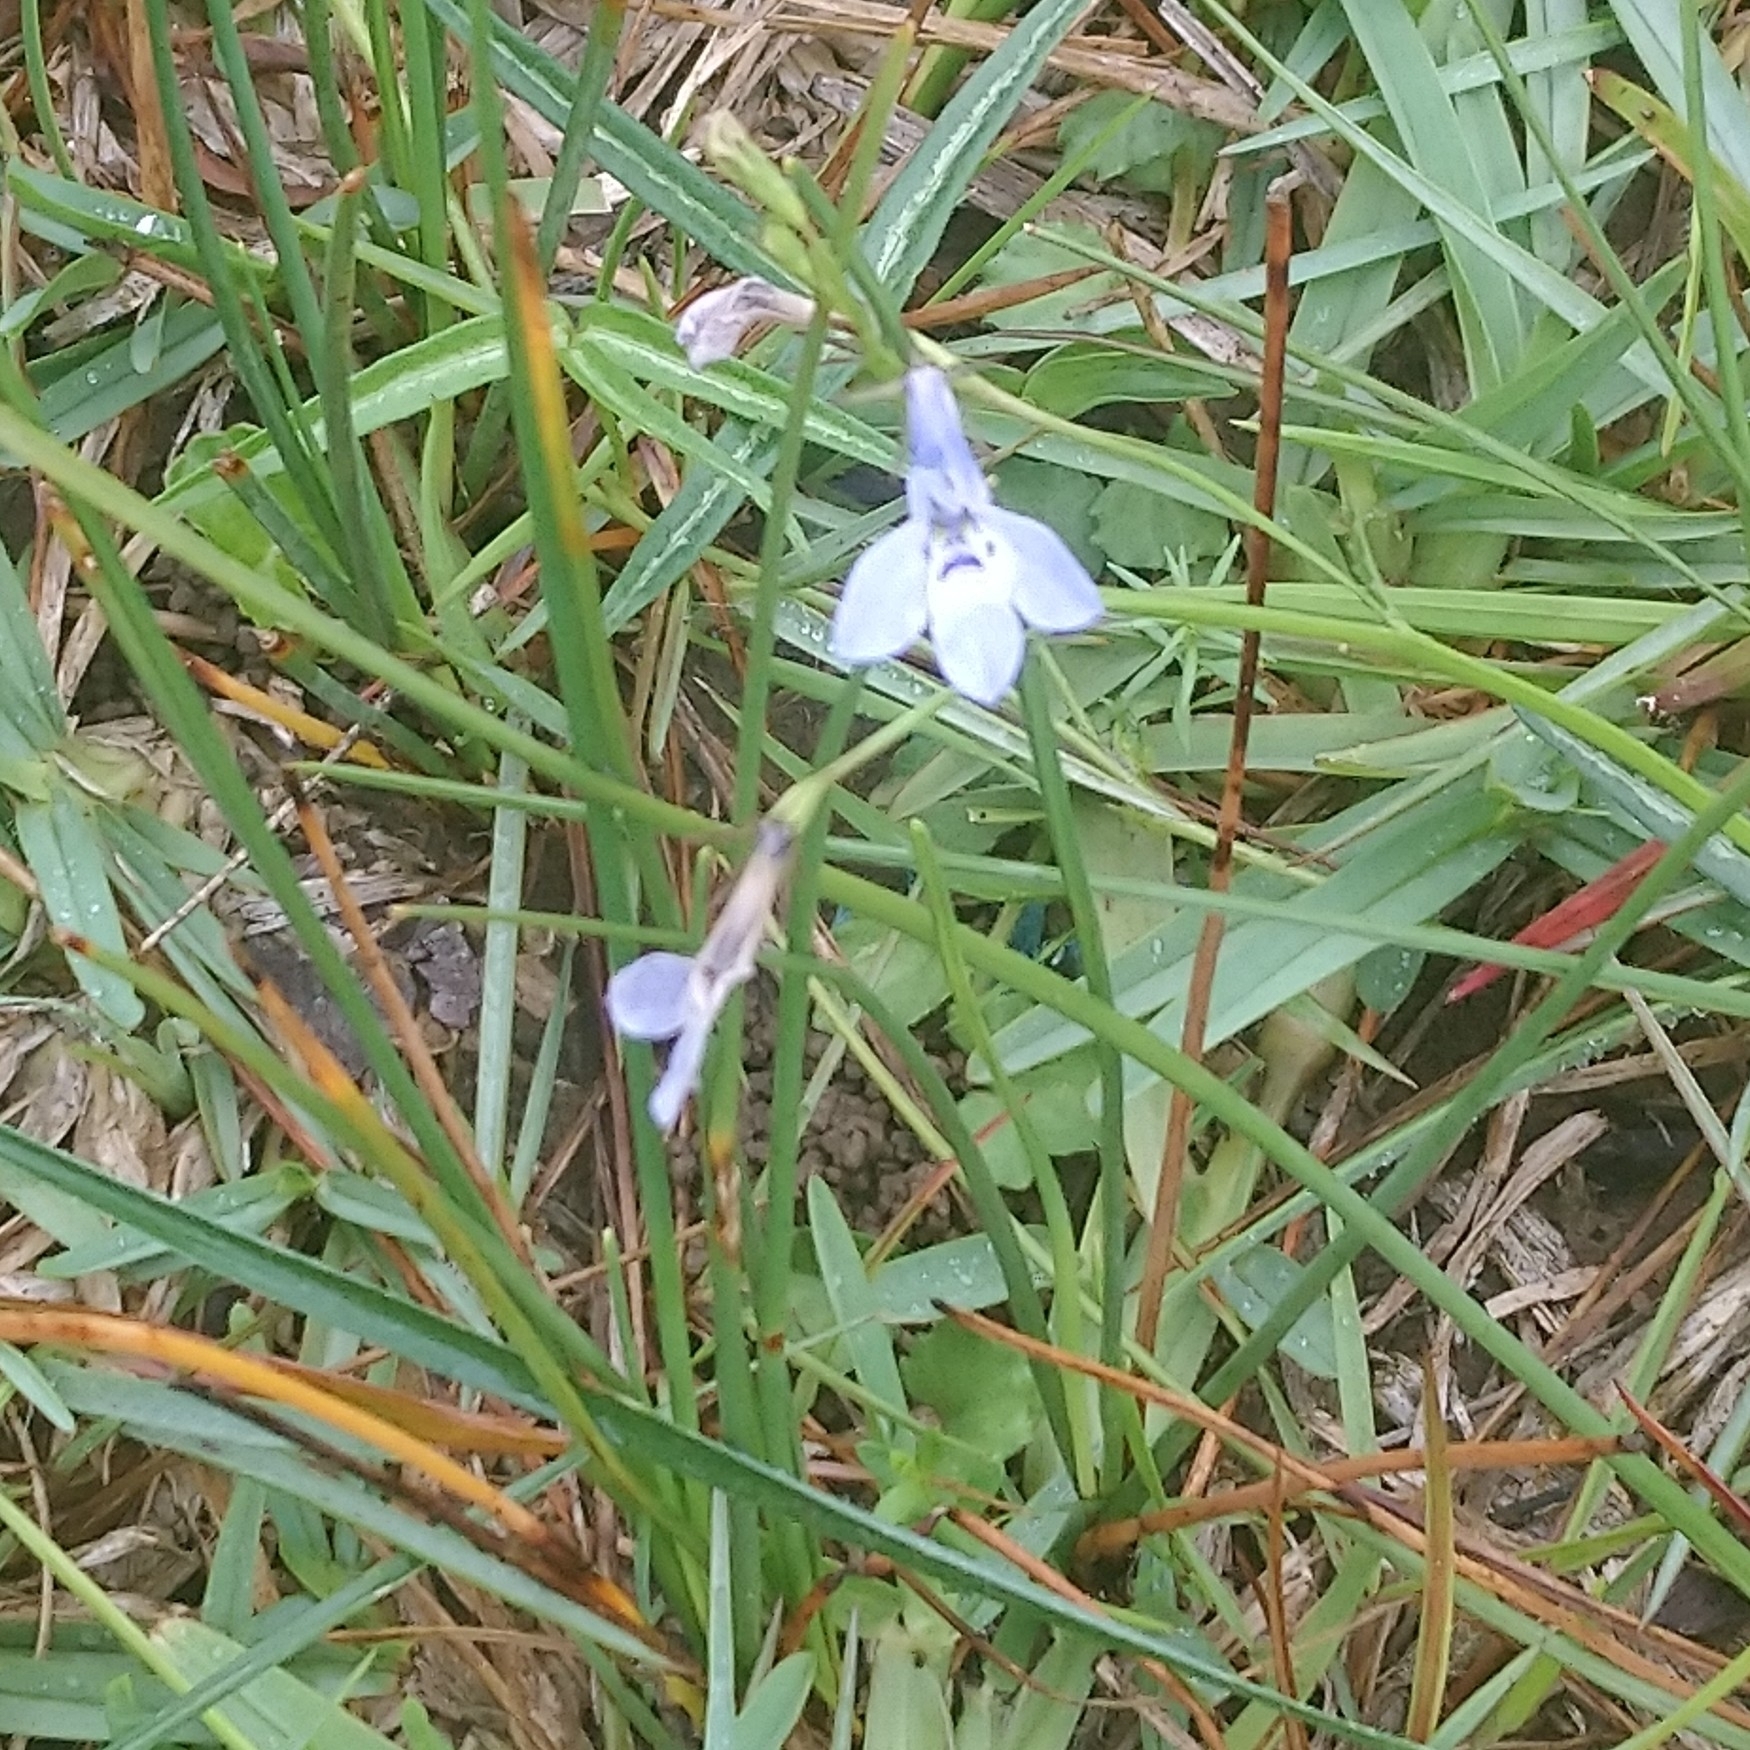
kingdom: Plantae
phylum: Tracheophyta
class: Magnoliopsida
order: Asterales
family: Campanulaceae
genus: Lobelia
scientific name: Lobelia flaccida
